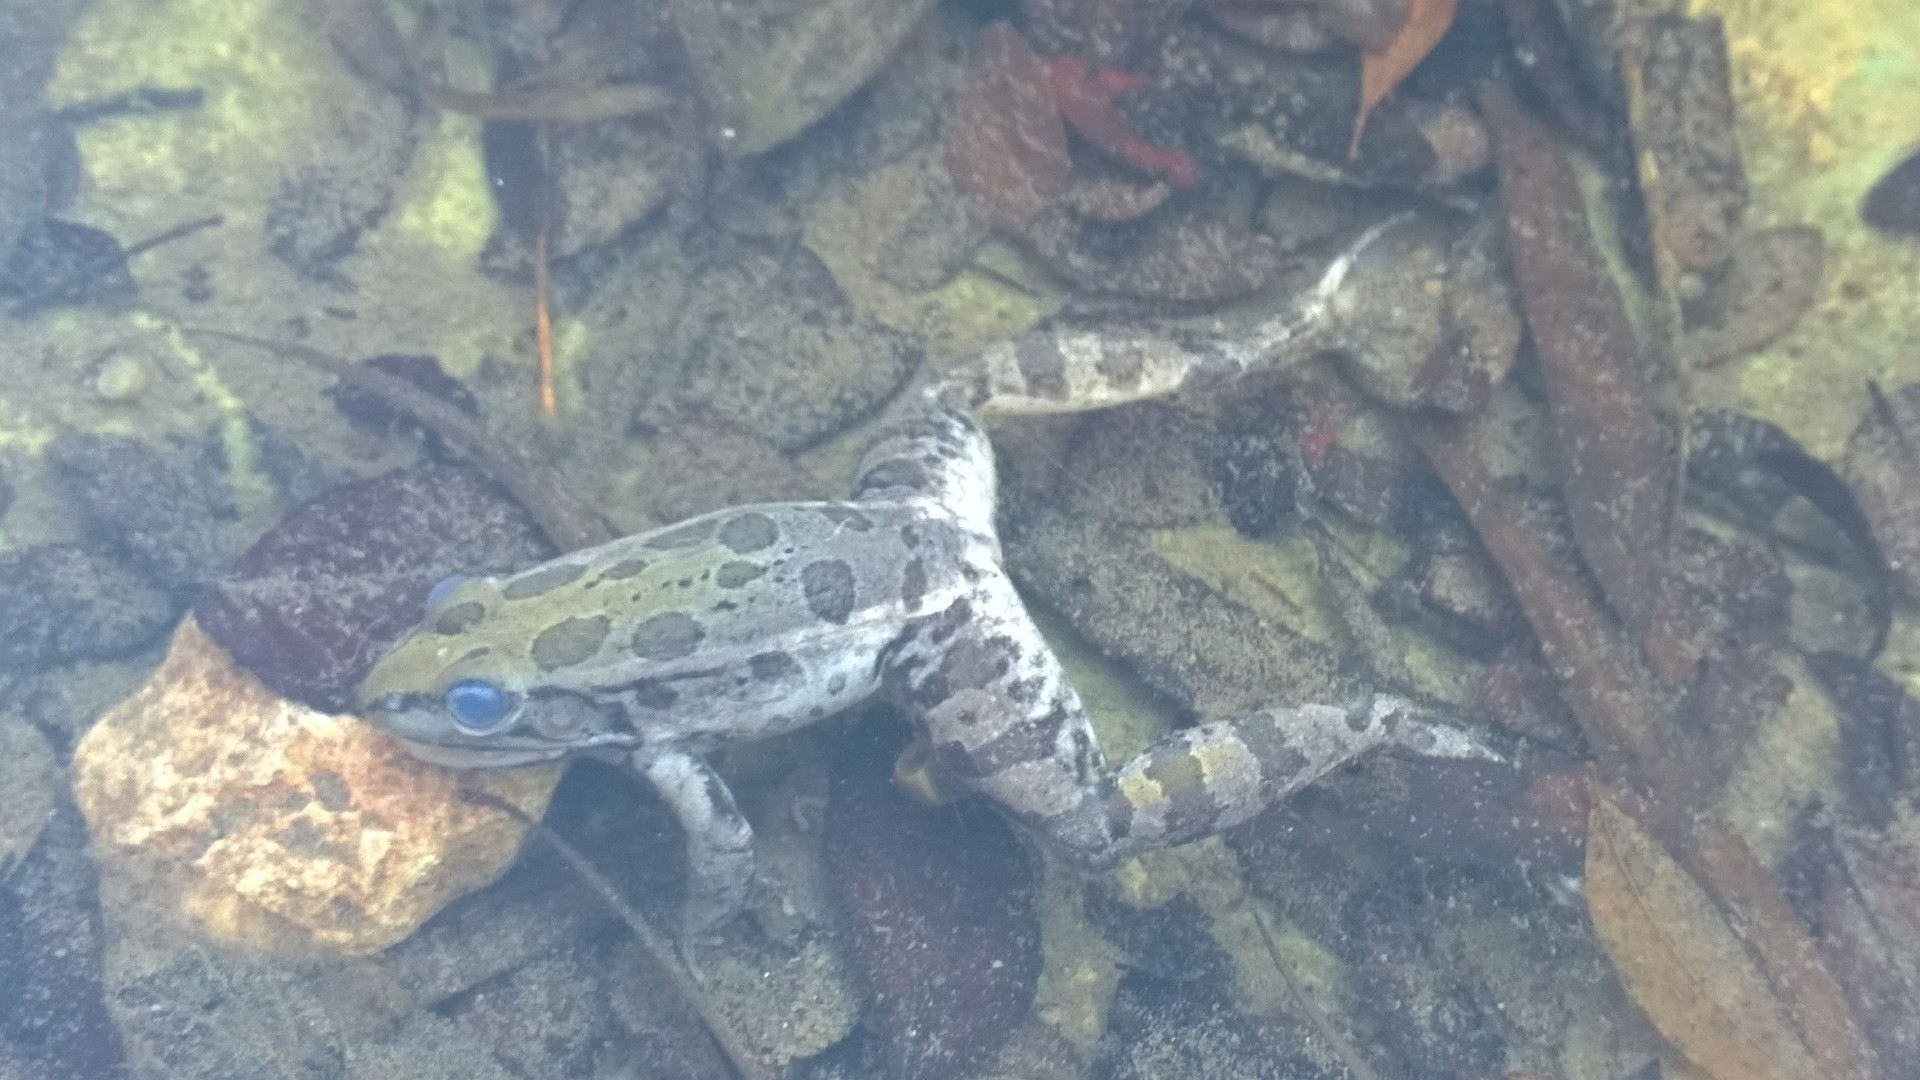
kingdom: Animalia
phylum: Chordata
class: Amphibia
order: Anura
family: Ranidae
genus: Lithobates
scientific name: Lithobates sphenocephalus
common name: Southern leopard frog
